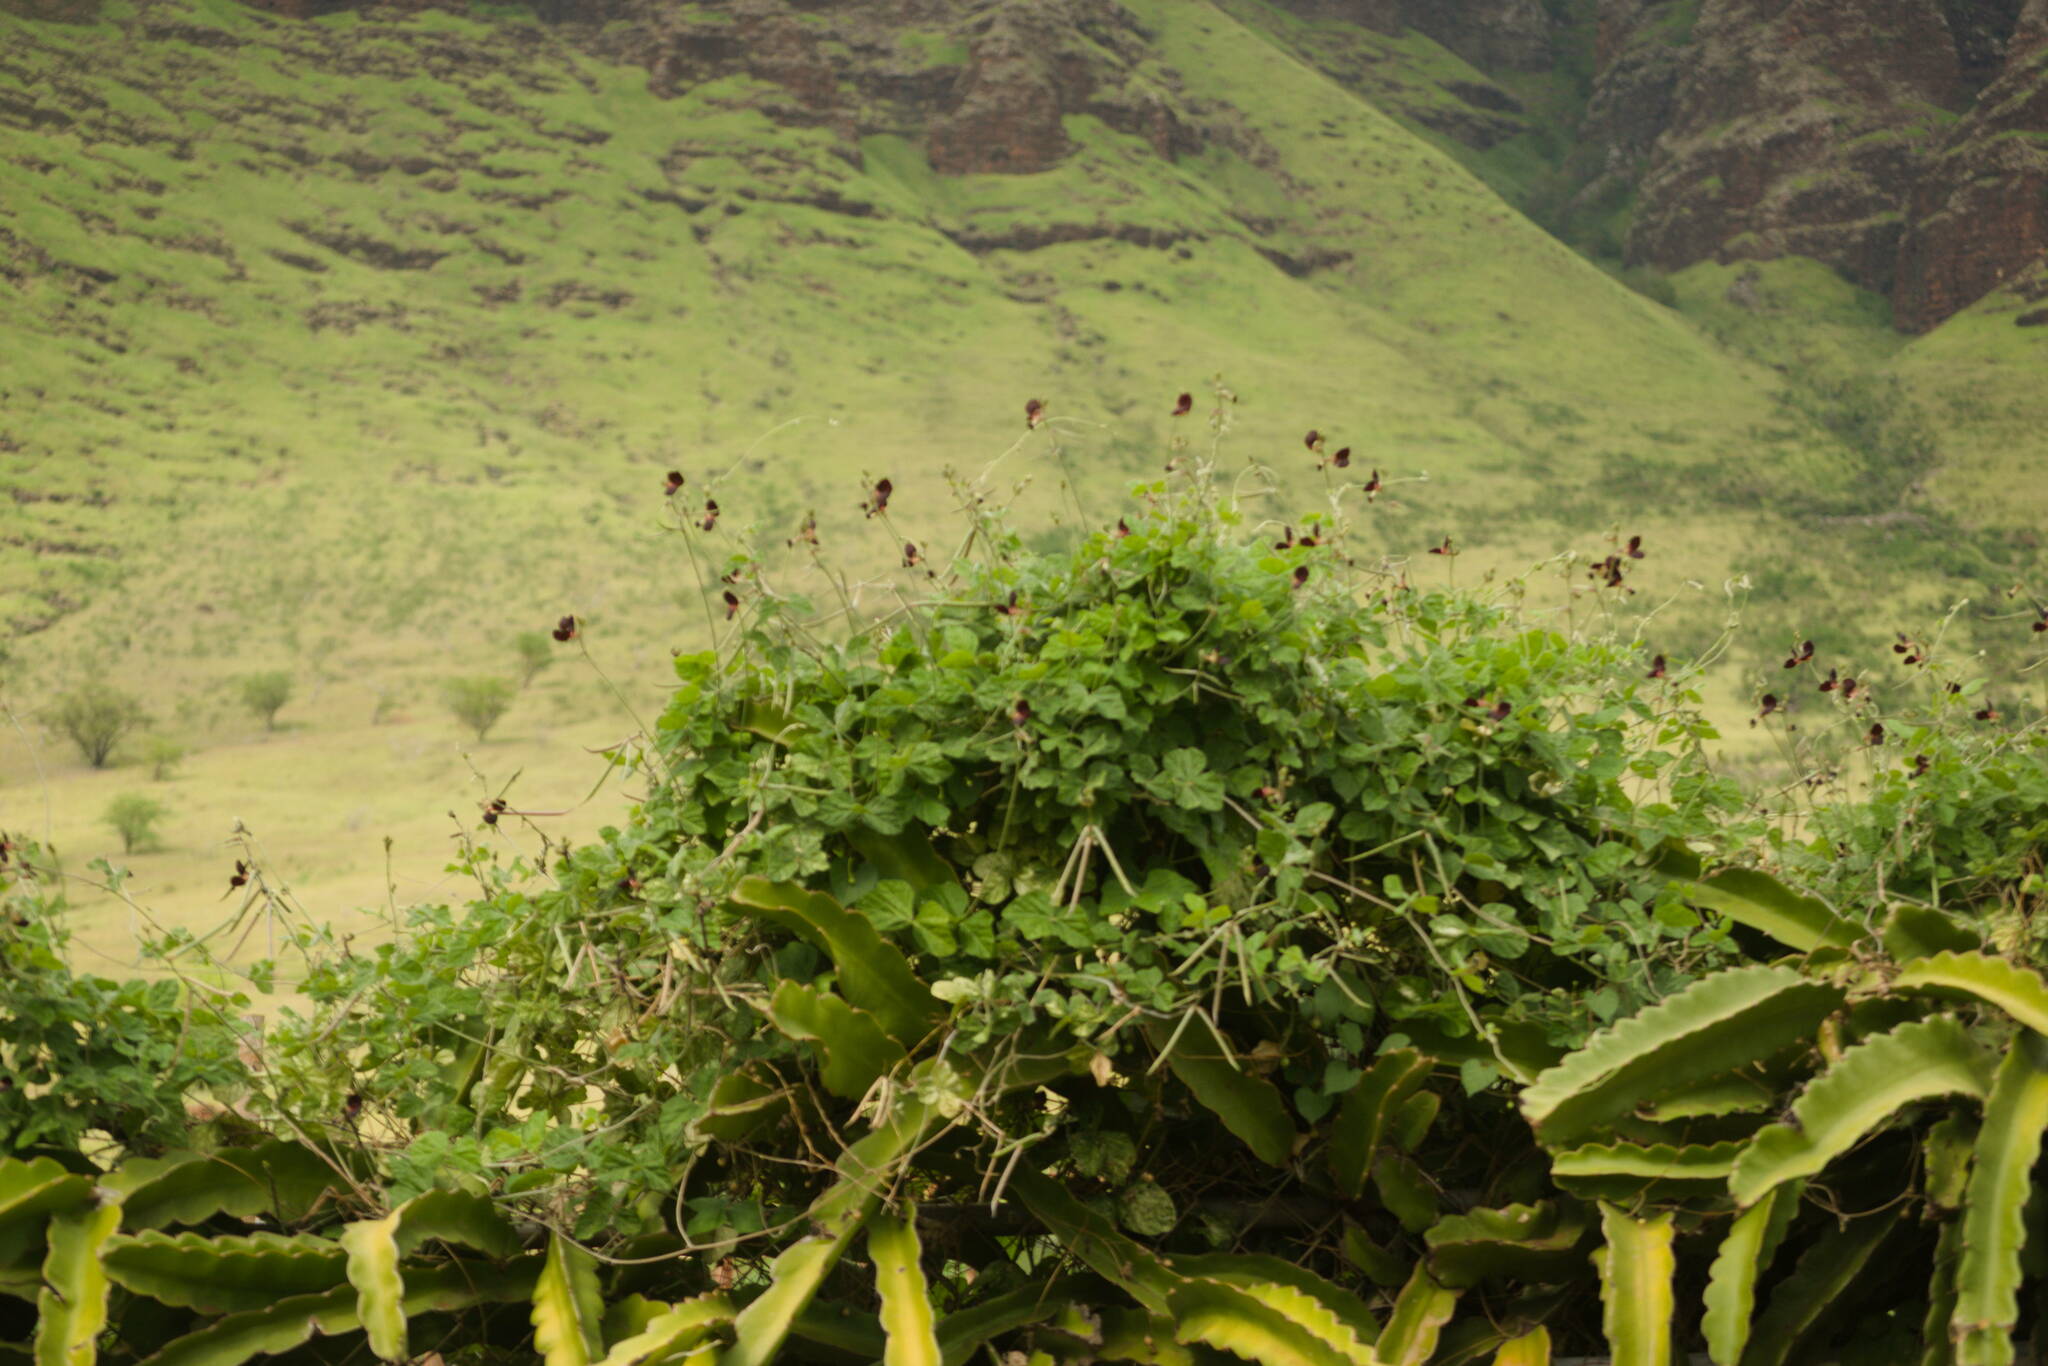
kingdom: Plantae
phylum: Tracheophyta
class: Magnoliopsida
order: Fabales
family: Fabaceae
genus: Macroptilium
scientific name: Macroptilium atropurpureum
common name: Purple bushbean
